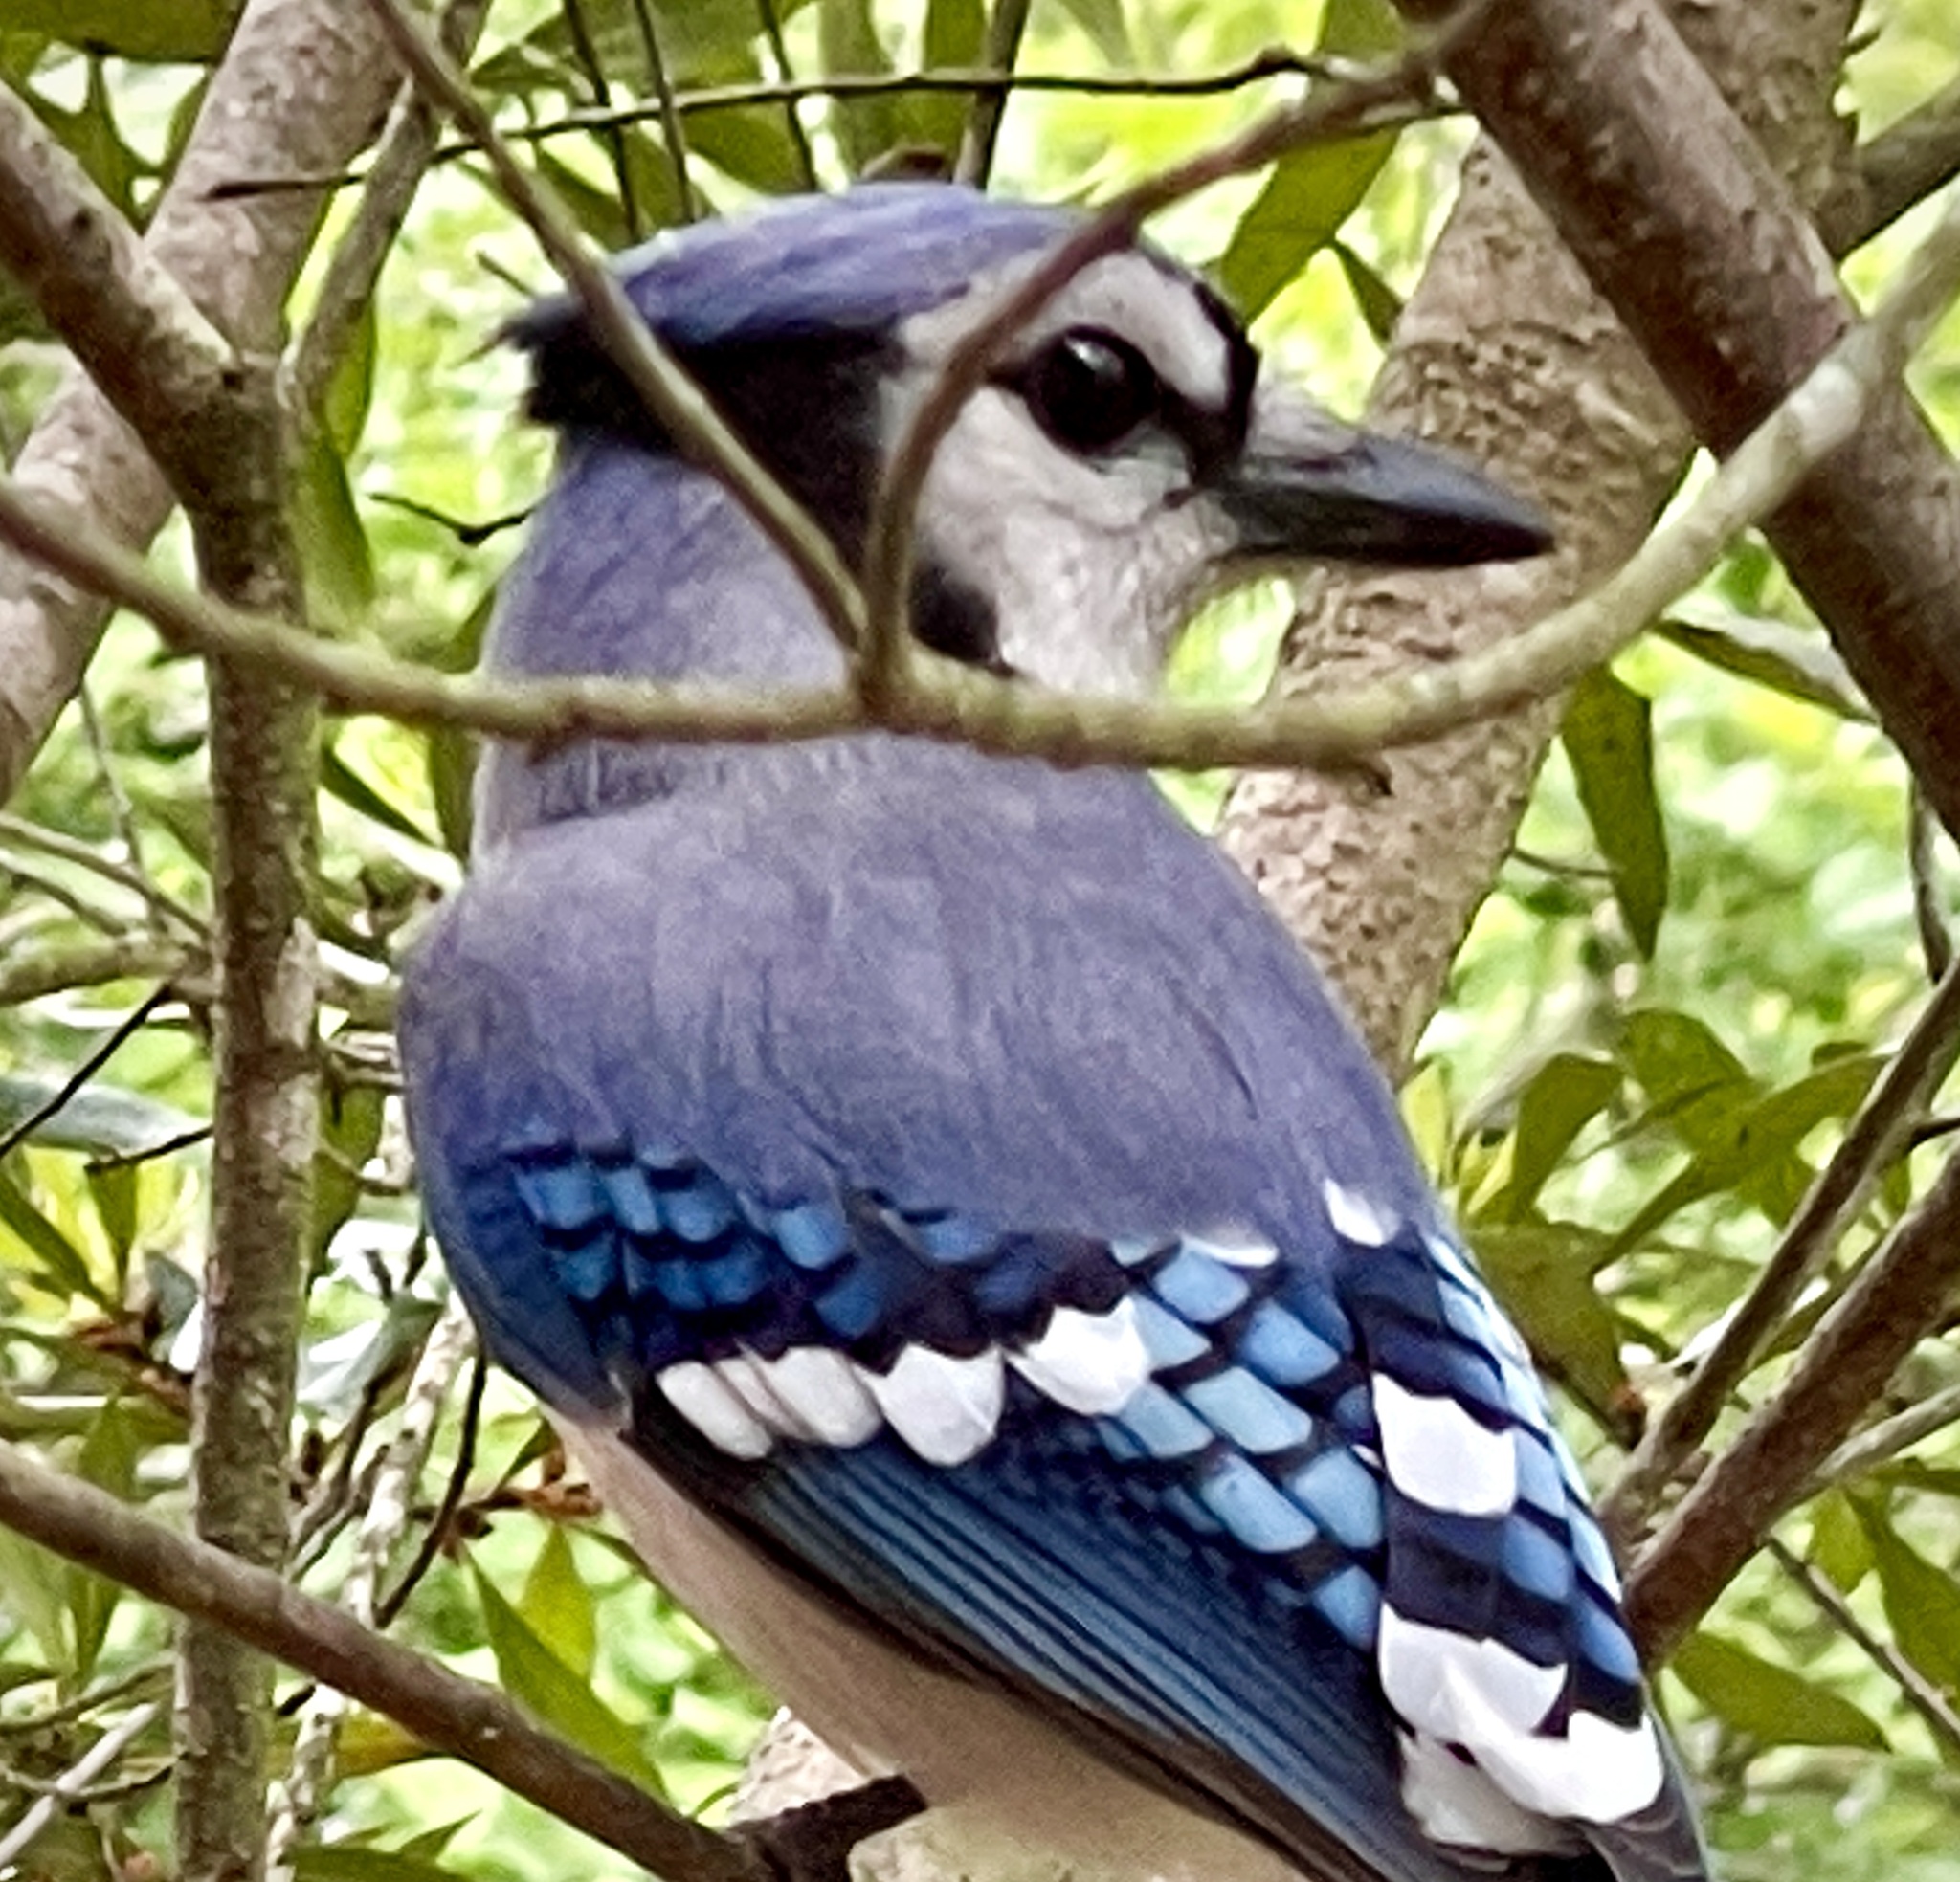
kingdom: Animalia
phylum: Chordata
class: Aves
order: Passeriformes
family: Corvidae
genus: Cyanocitta
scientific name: Cyanocitta cristata
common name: Blue jay
